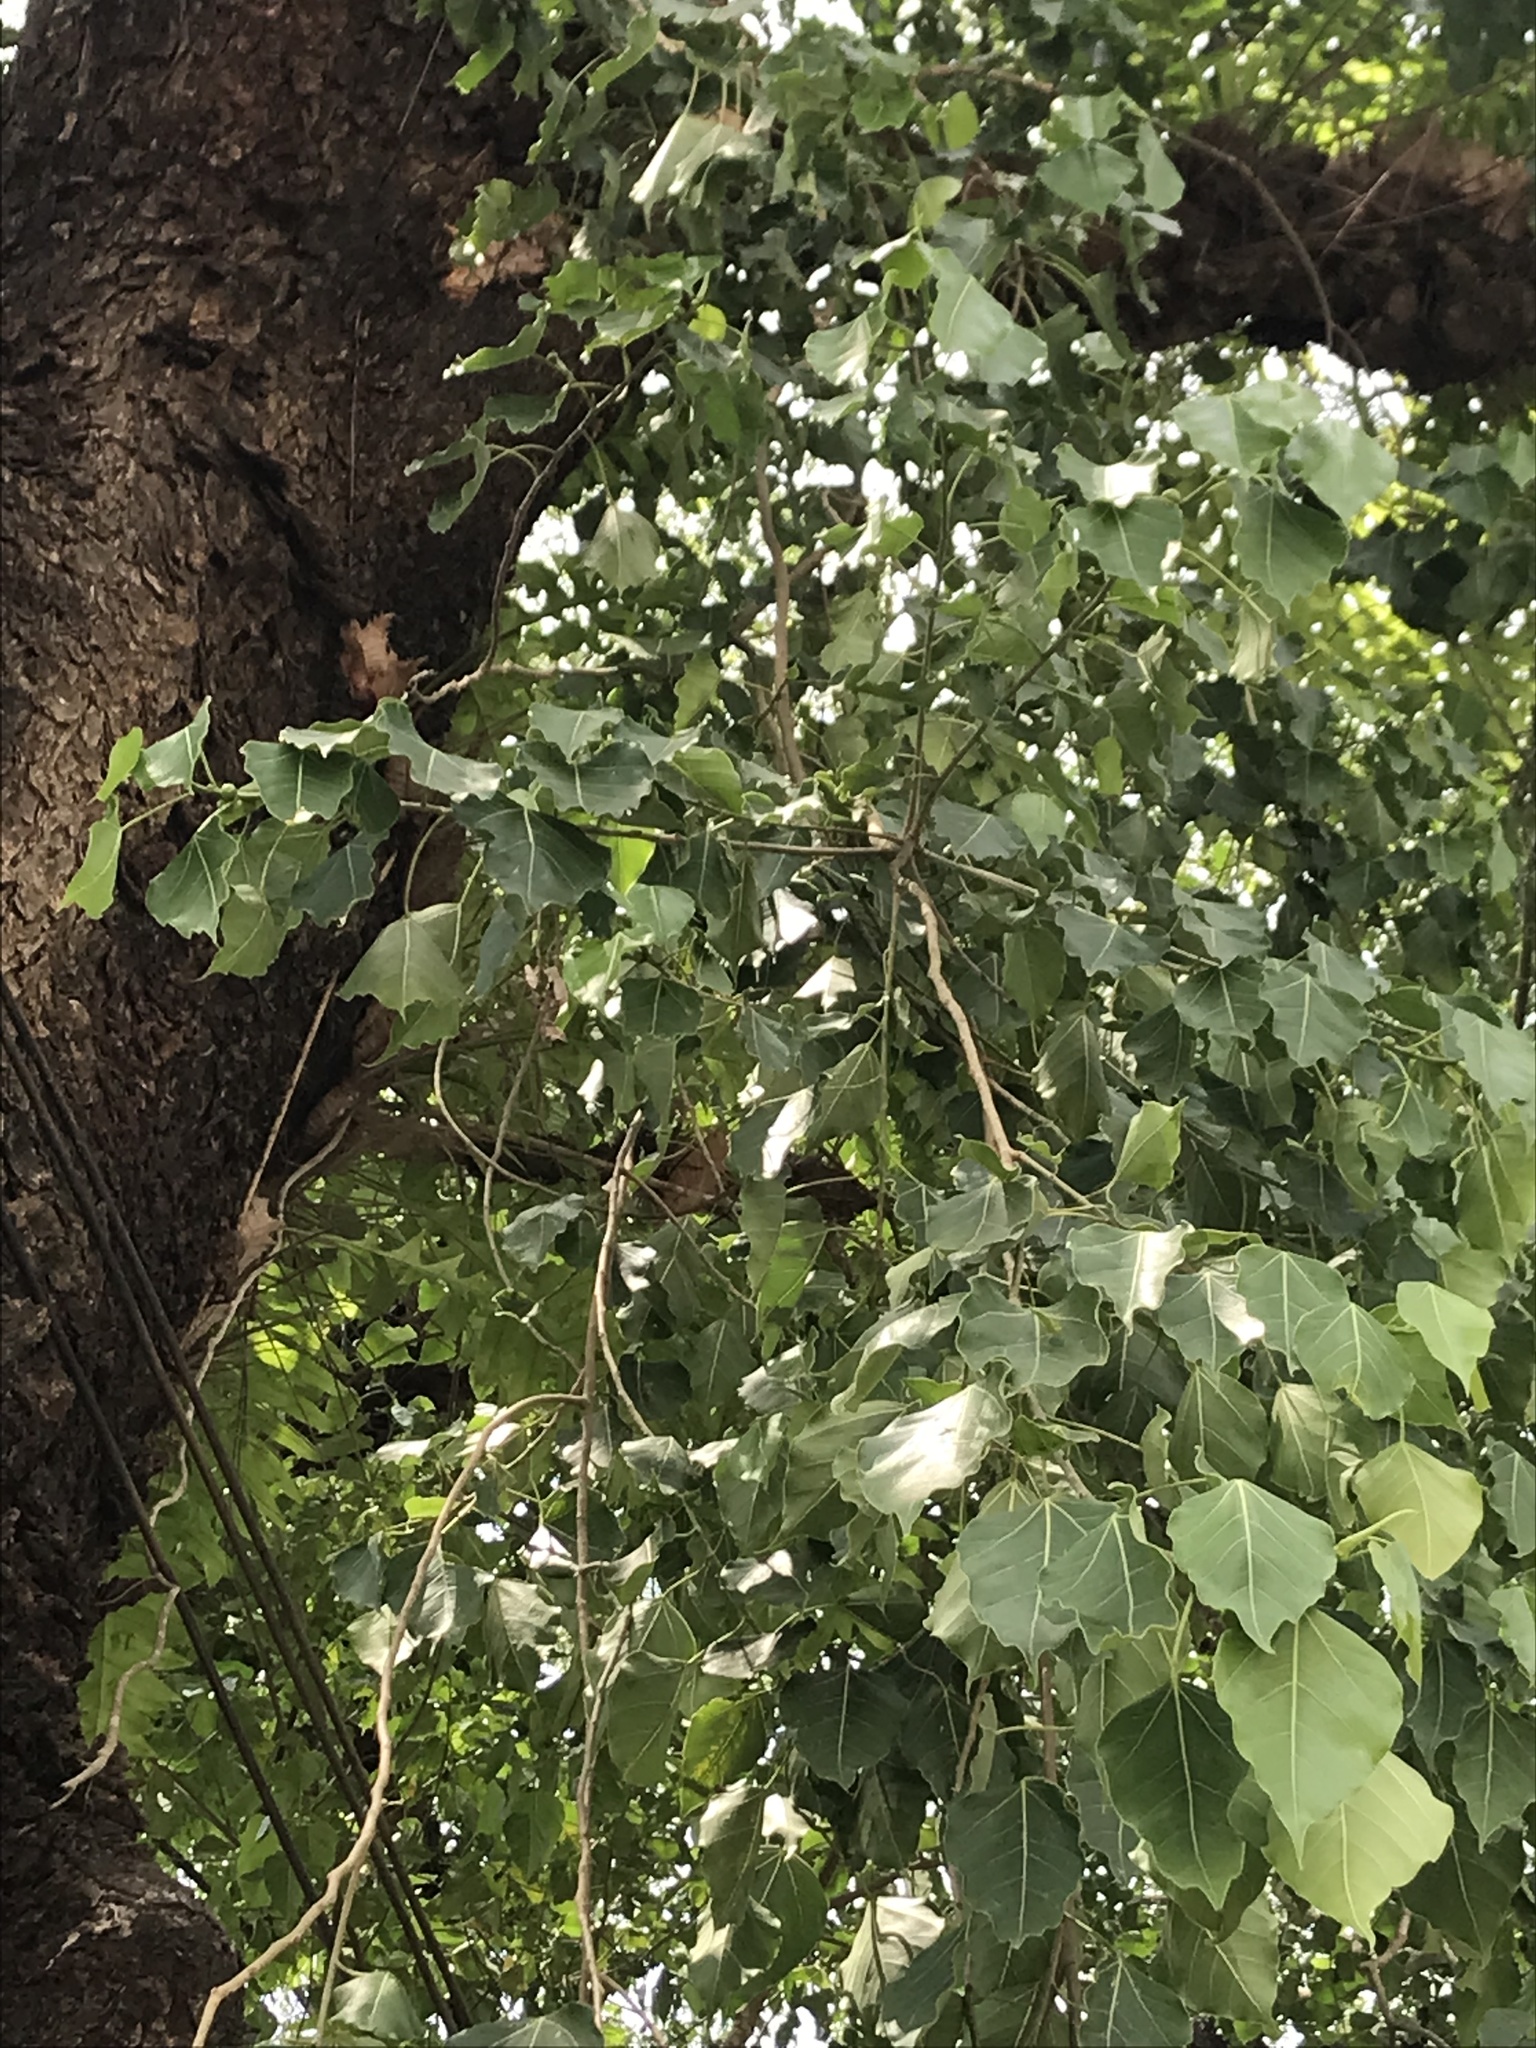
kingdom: Plantae
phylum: Tracheophyta
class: Magnoliopsida
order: Rosales
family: Moraceae
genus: Ficus
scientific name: Ficus religiosa
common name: Bodhi tree
